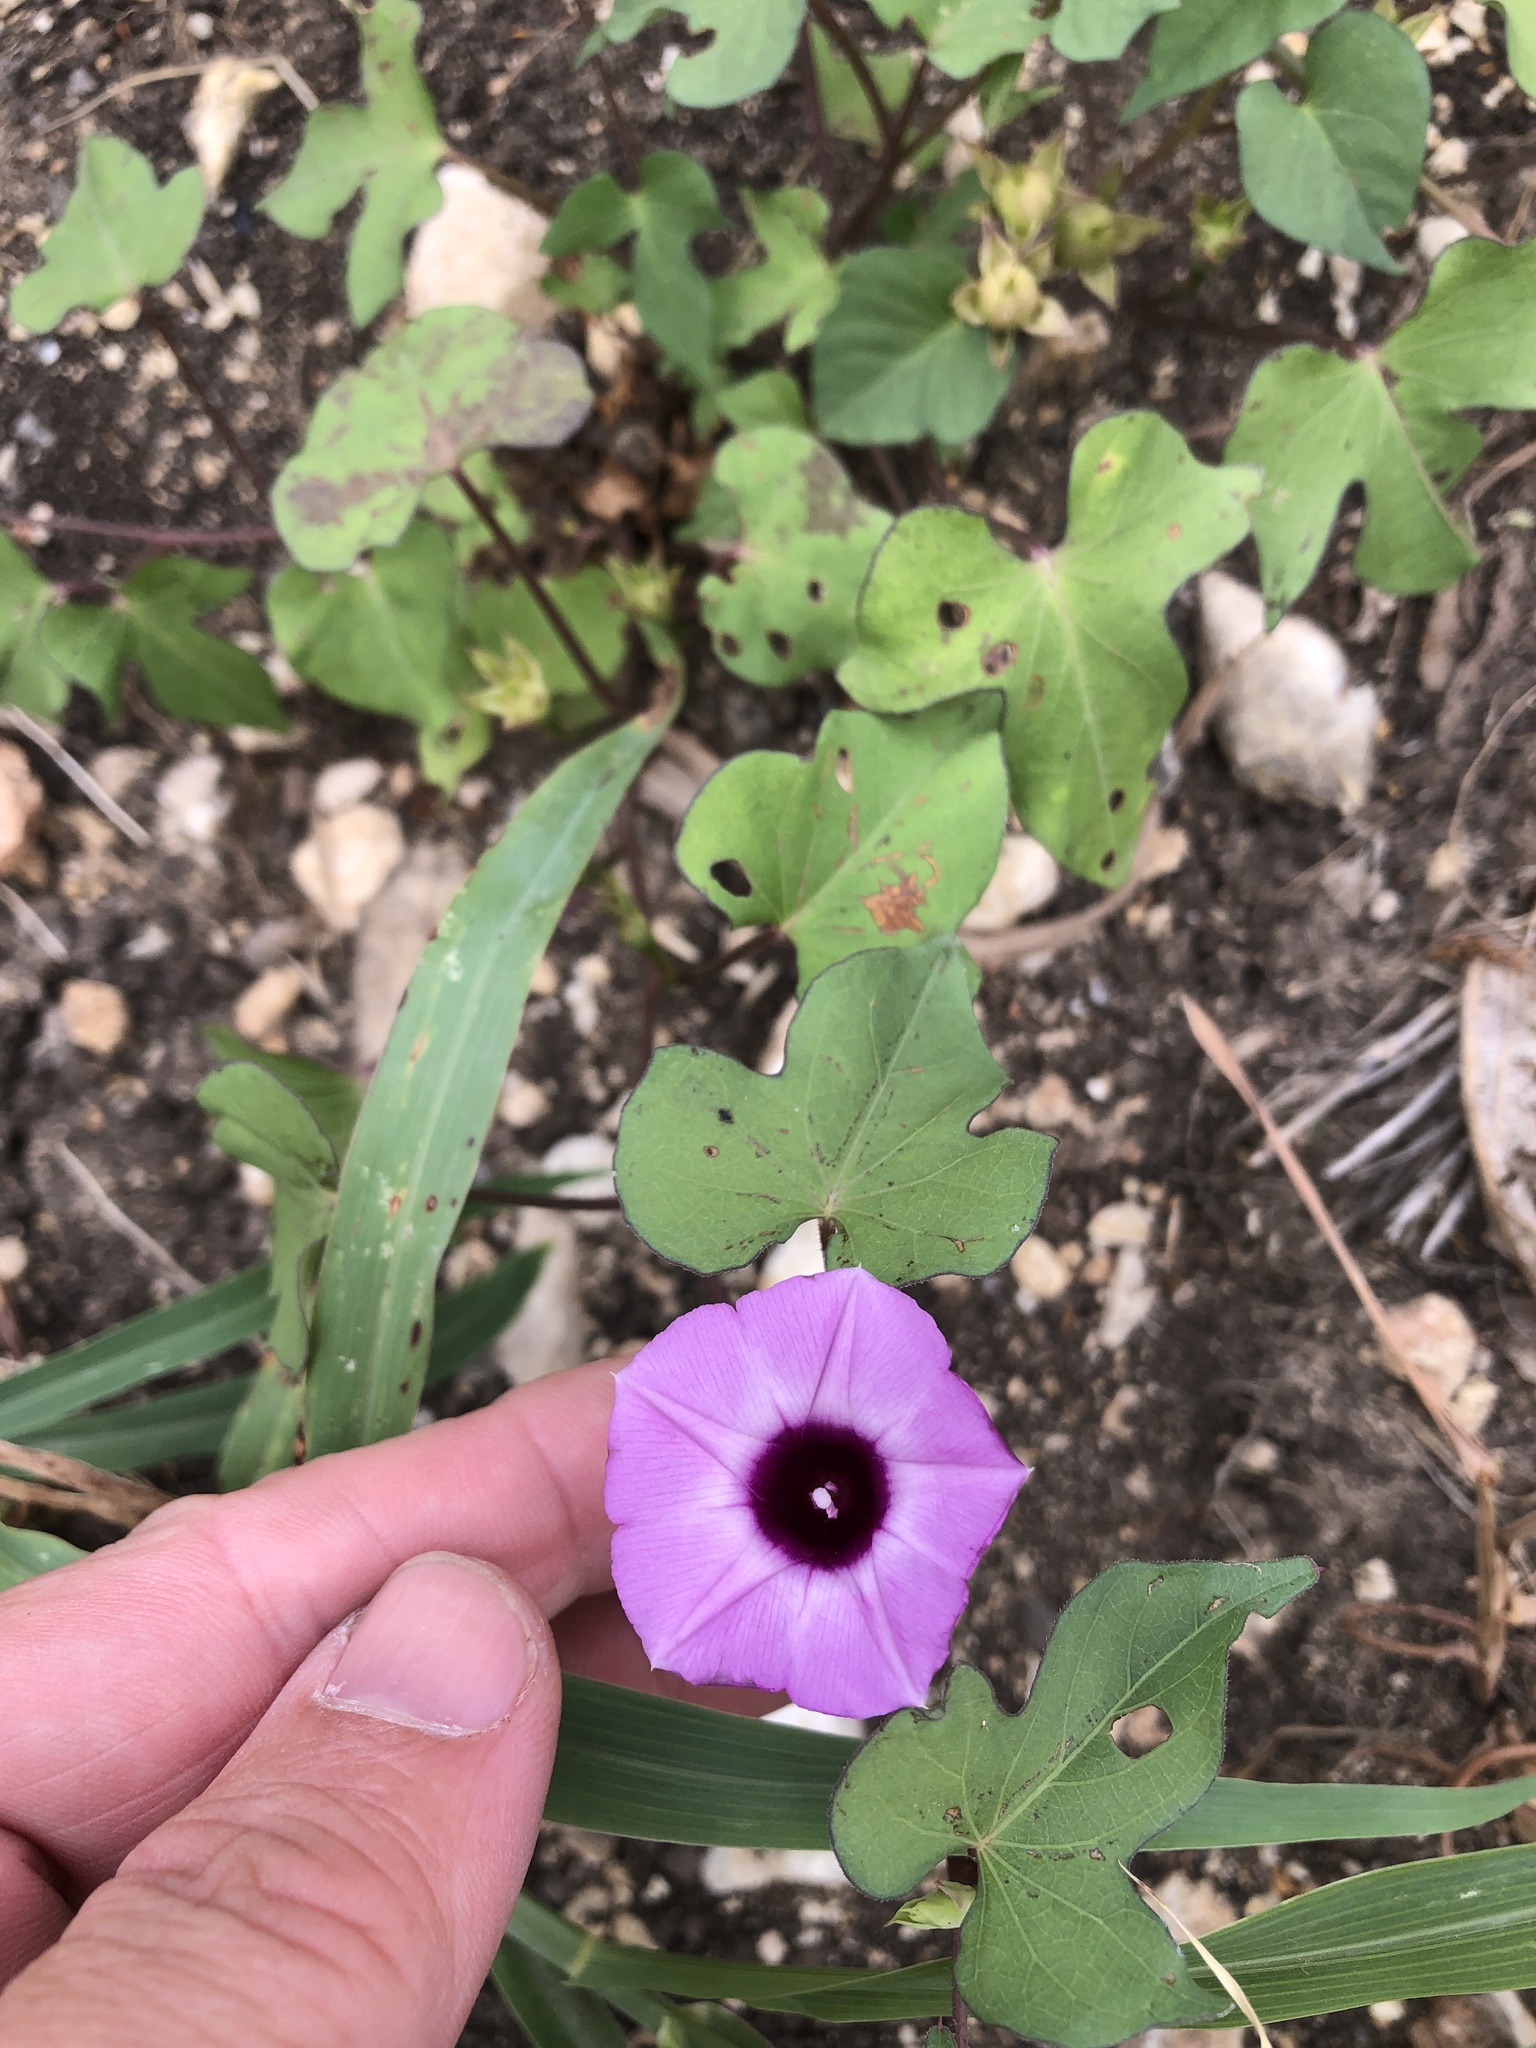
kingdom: Plantae
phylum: Tracheophyta
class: Magnoliopsida
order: Solanales
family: Convolvulaceae
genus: Ipomoea
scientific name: Ipomoea cordatotriloba
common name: Cotton morning glory
